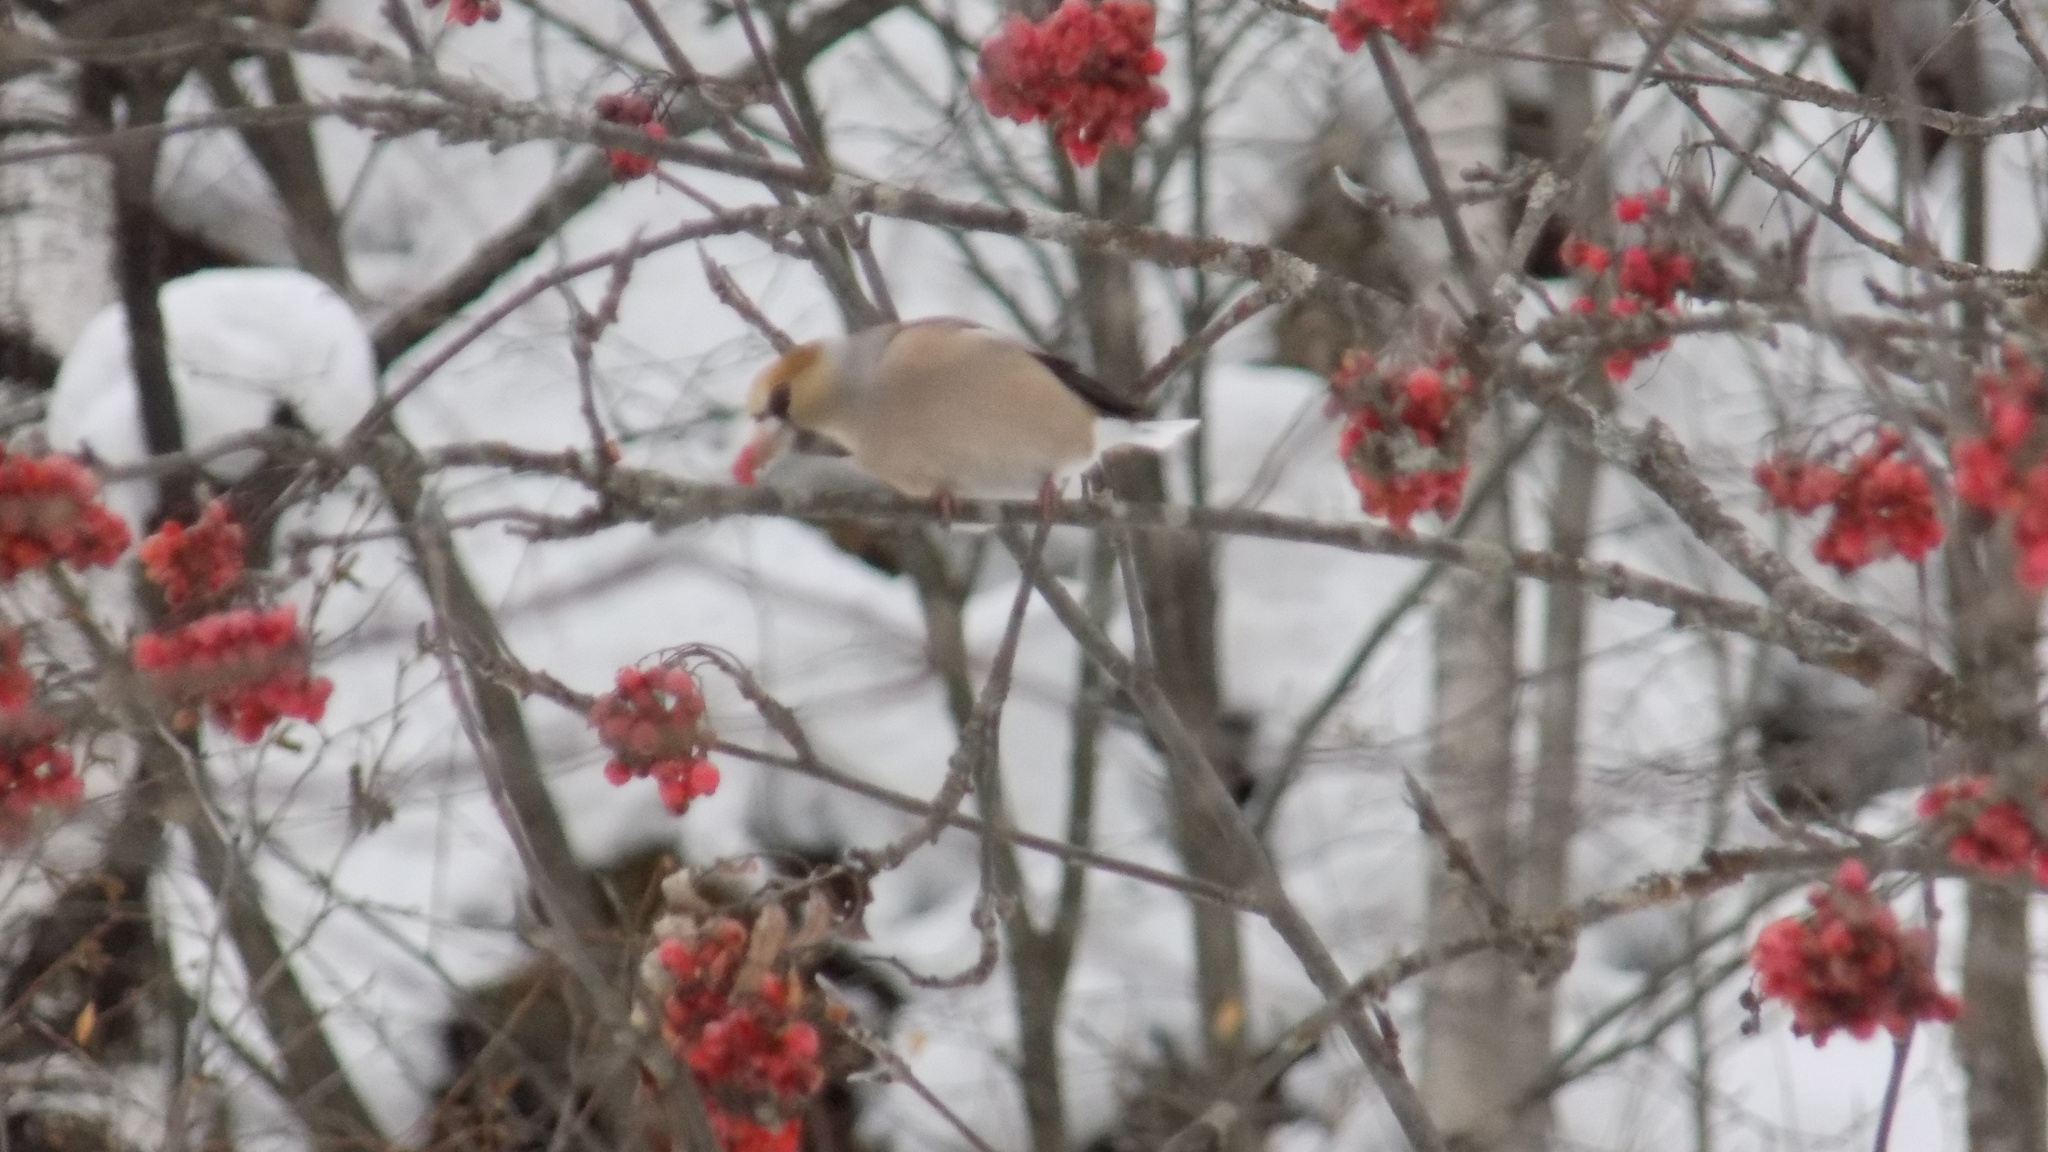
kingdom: Animalia
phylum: Chordata
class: Aves
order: Passeriformes
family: Fringillidae
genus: Coccothraustes
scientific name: Coccothraustes coccothraustes
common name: Hawfinch
